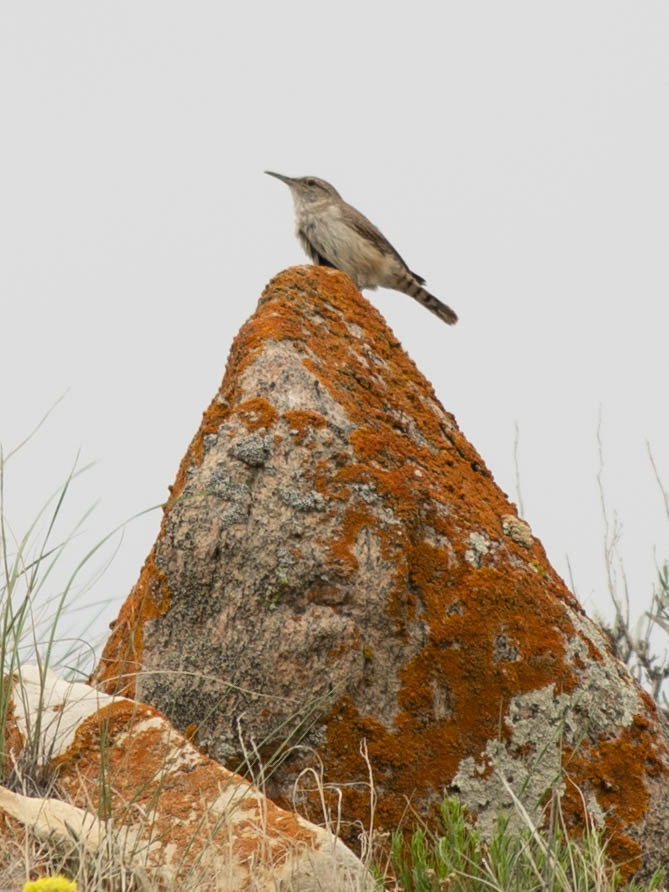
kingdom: Animalia
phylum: Chordata
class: Aves
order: Passeriformes
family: Troglodytidae
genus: Salpinctes
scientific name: Salpinctes obsoletus
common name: Rock wren
